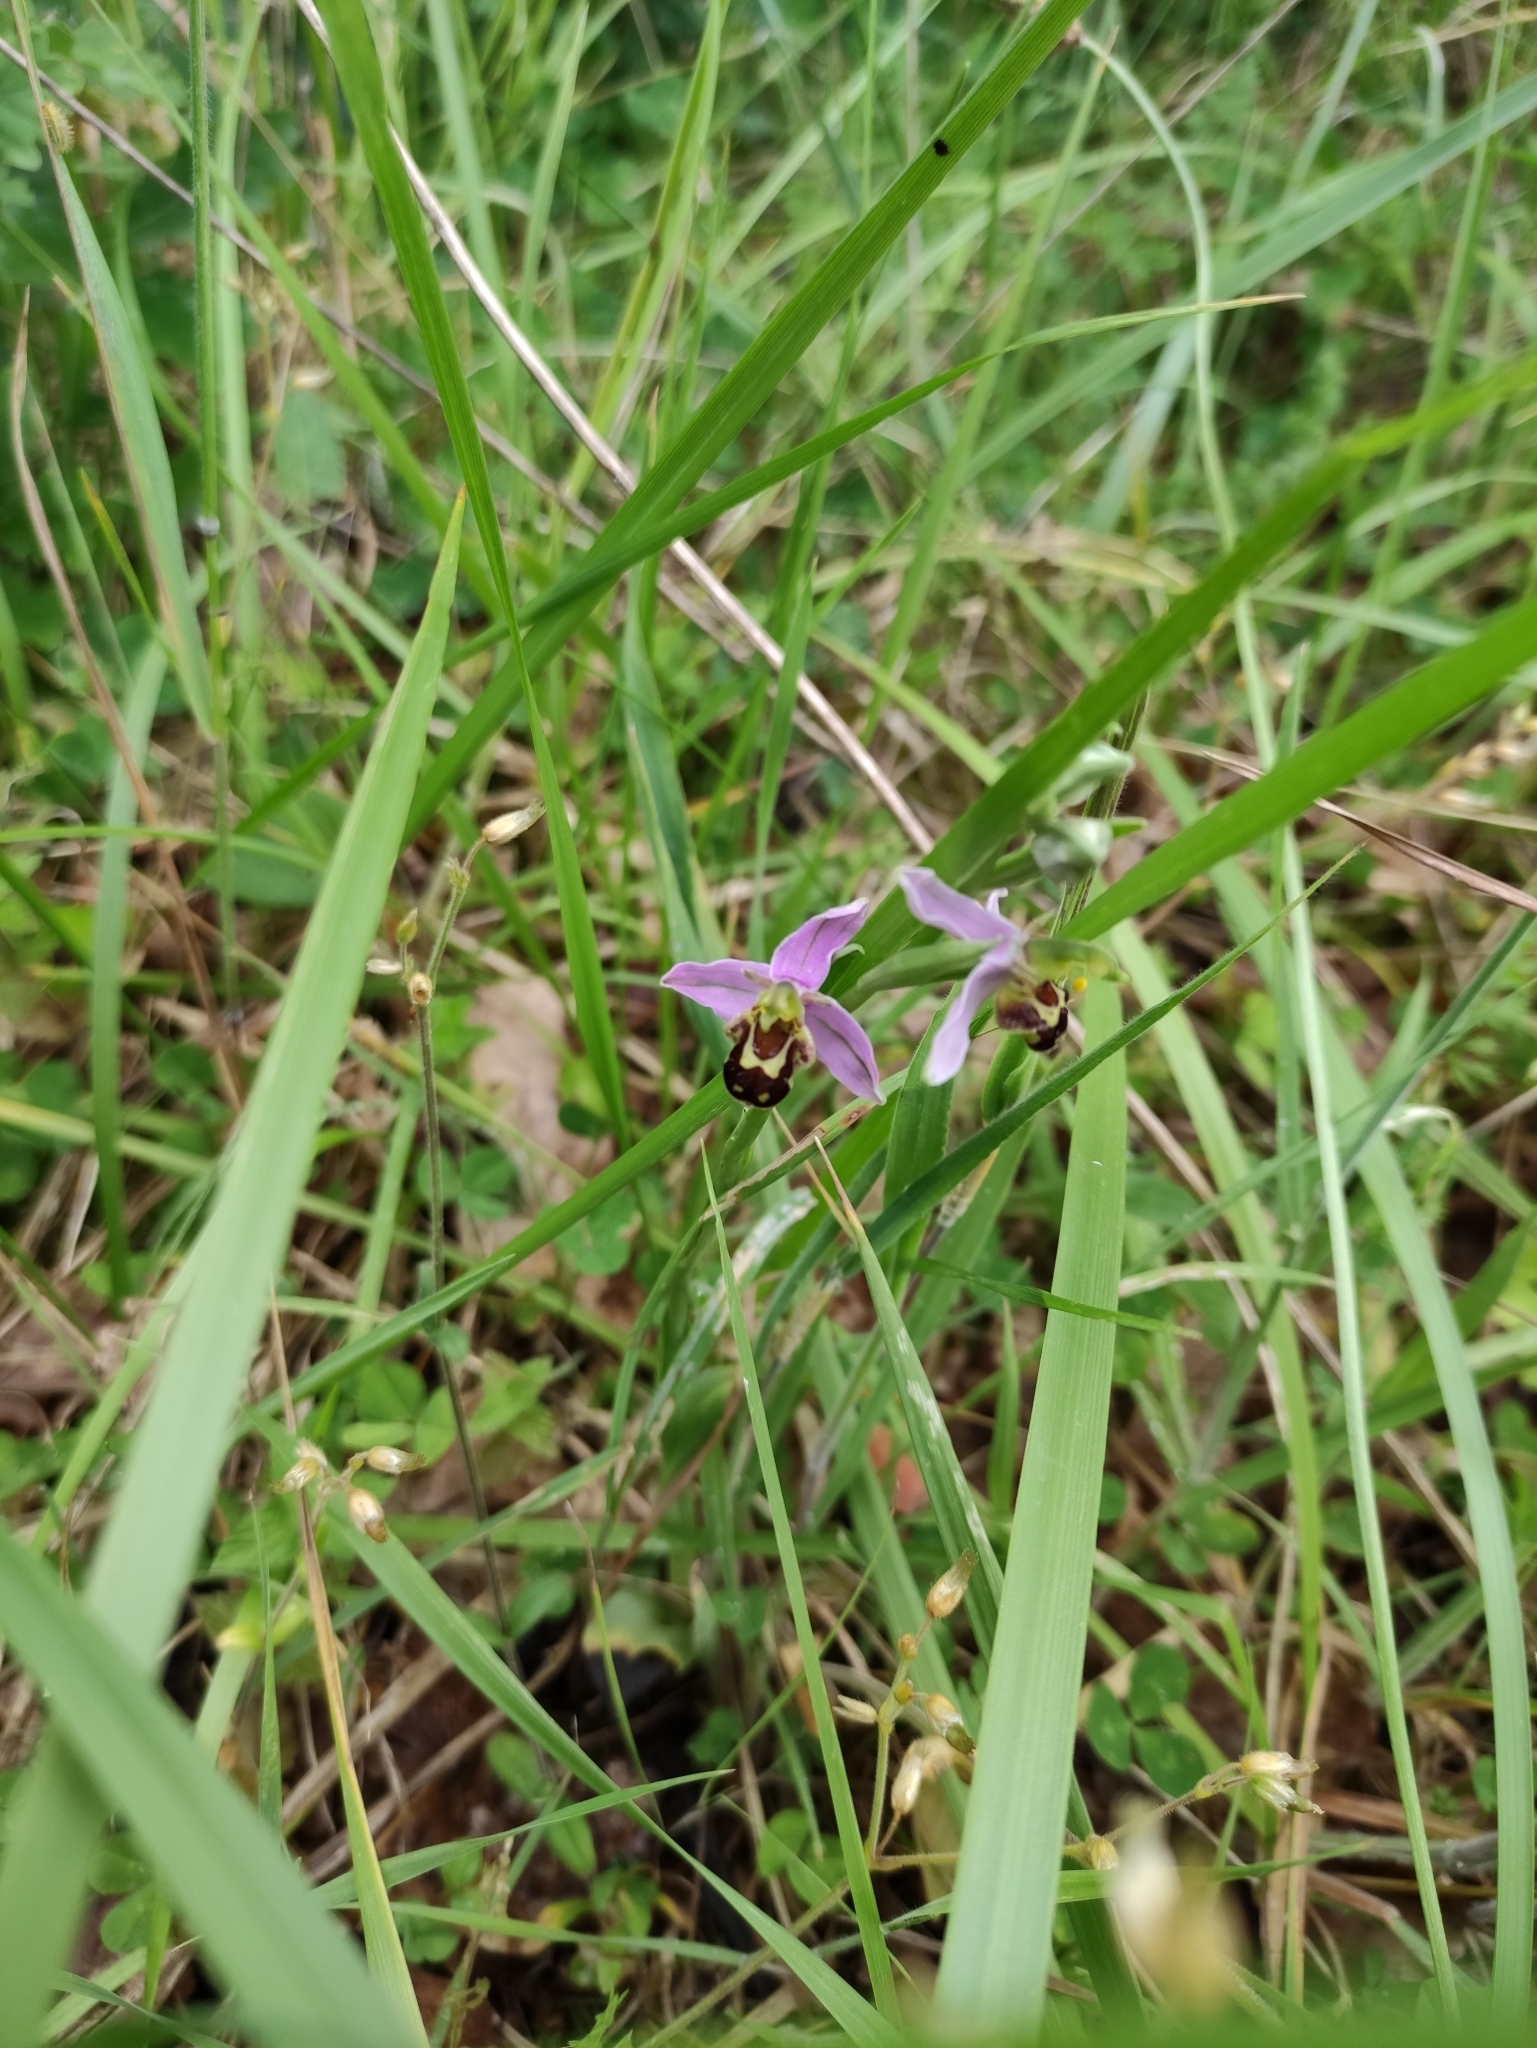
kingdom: Plantae
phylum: Tracheophyta
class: Liliopsida
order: Asparagales
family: Orchidaceae
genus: Ophrys
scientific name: Ophrys apifera
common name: Bee orchid
